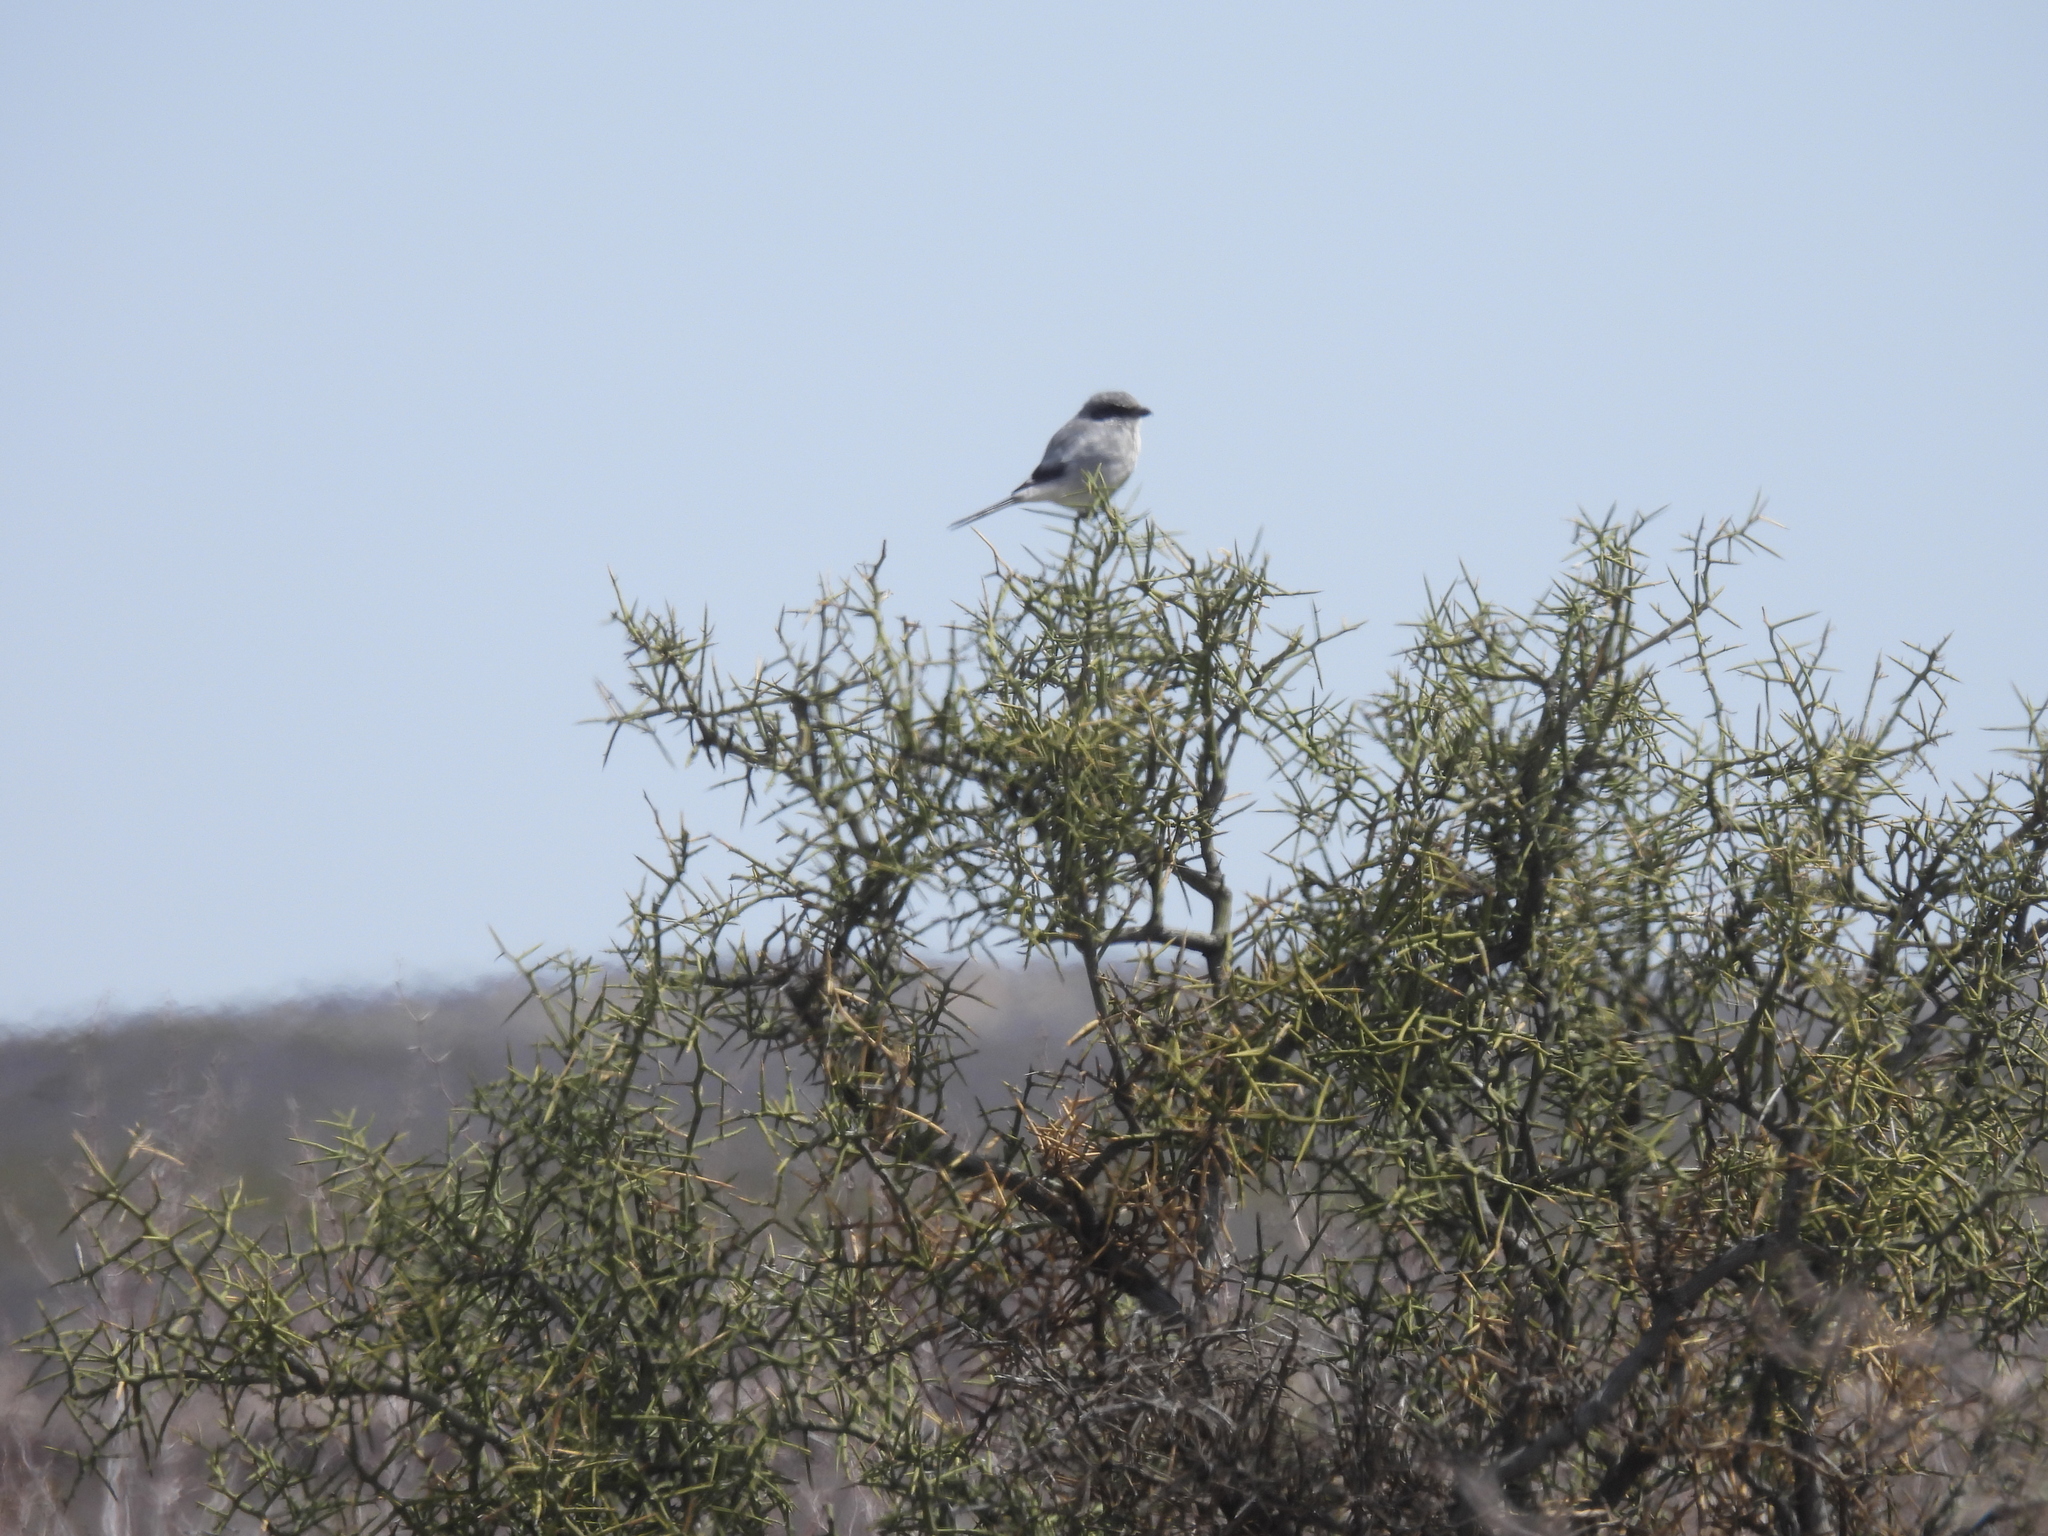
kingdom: Animalia
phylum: Chordata
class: Aves
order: Passeriformes
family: Laniidae
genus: Lanius
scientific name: Lanius ludovicianus
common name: Loggerhead shrike
